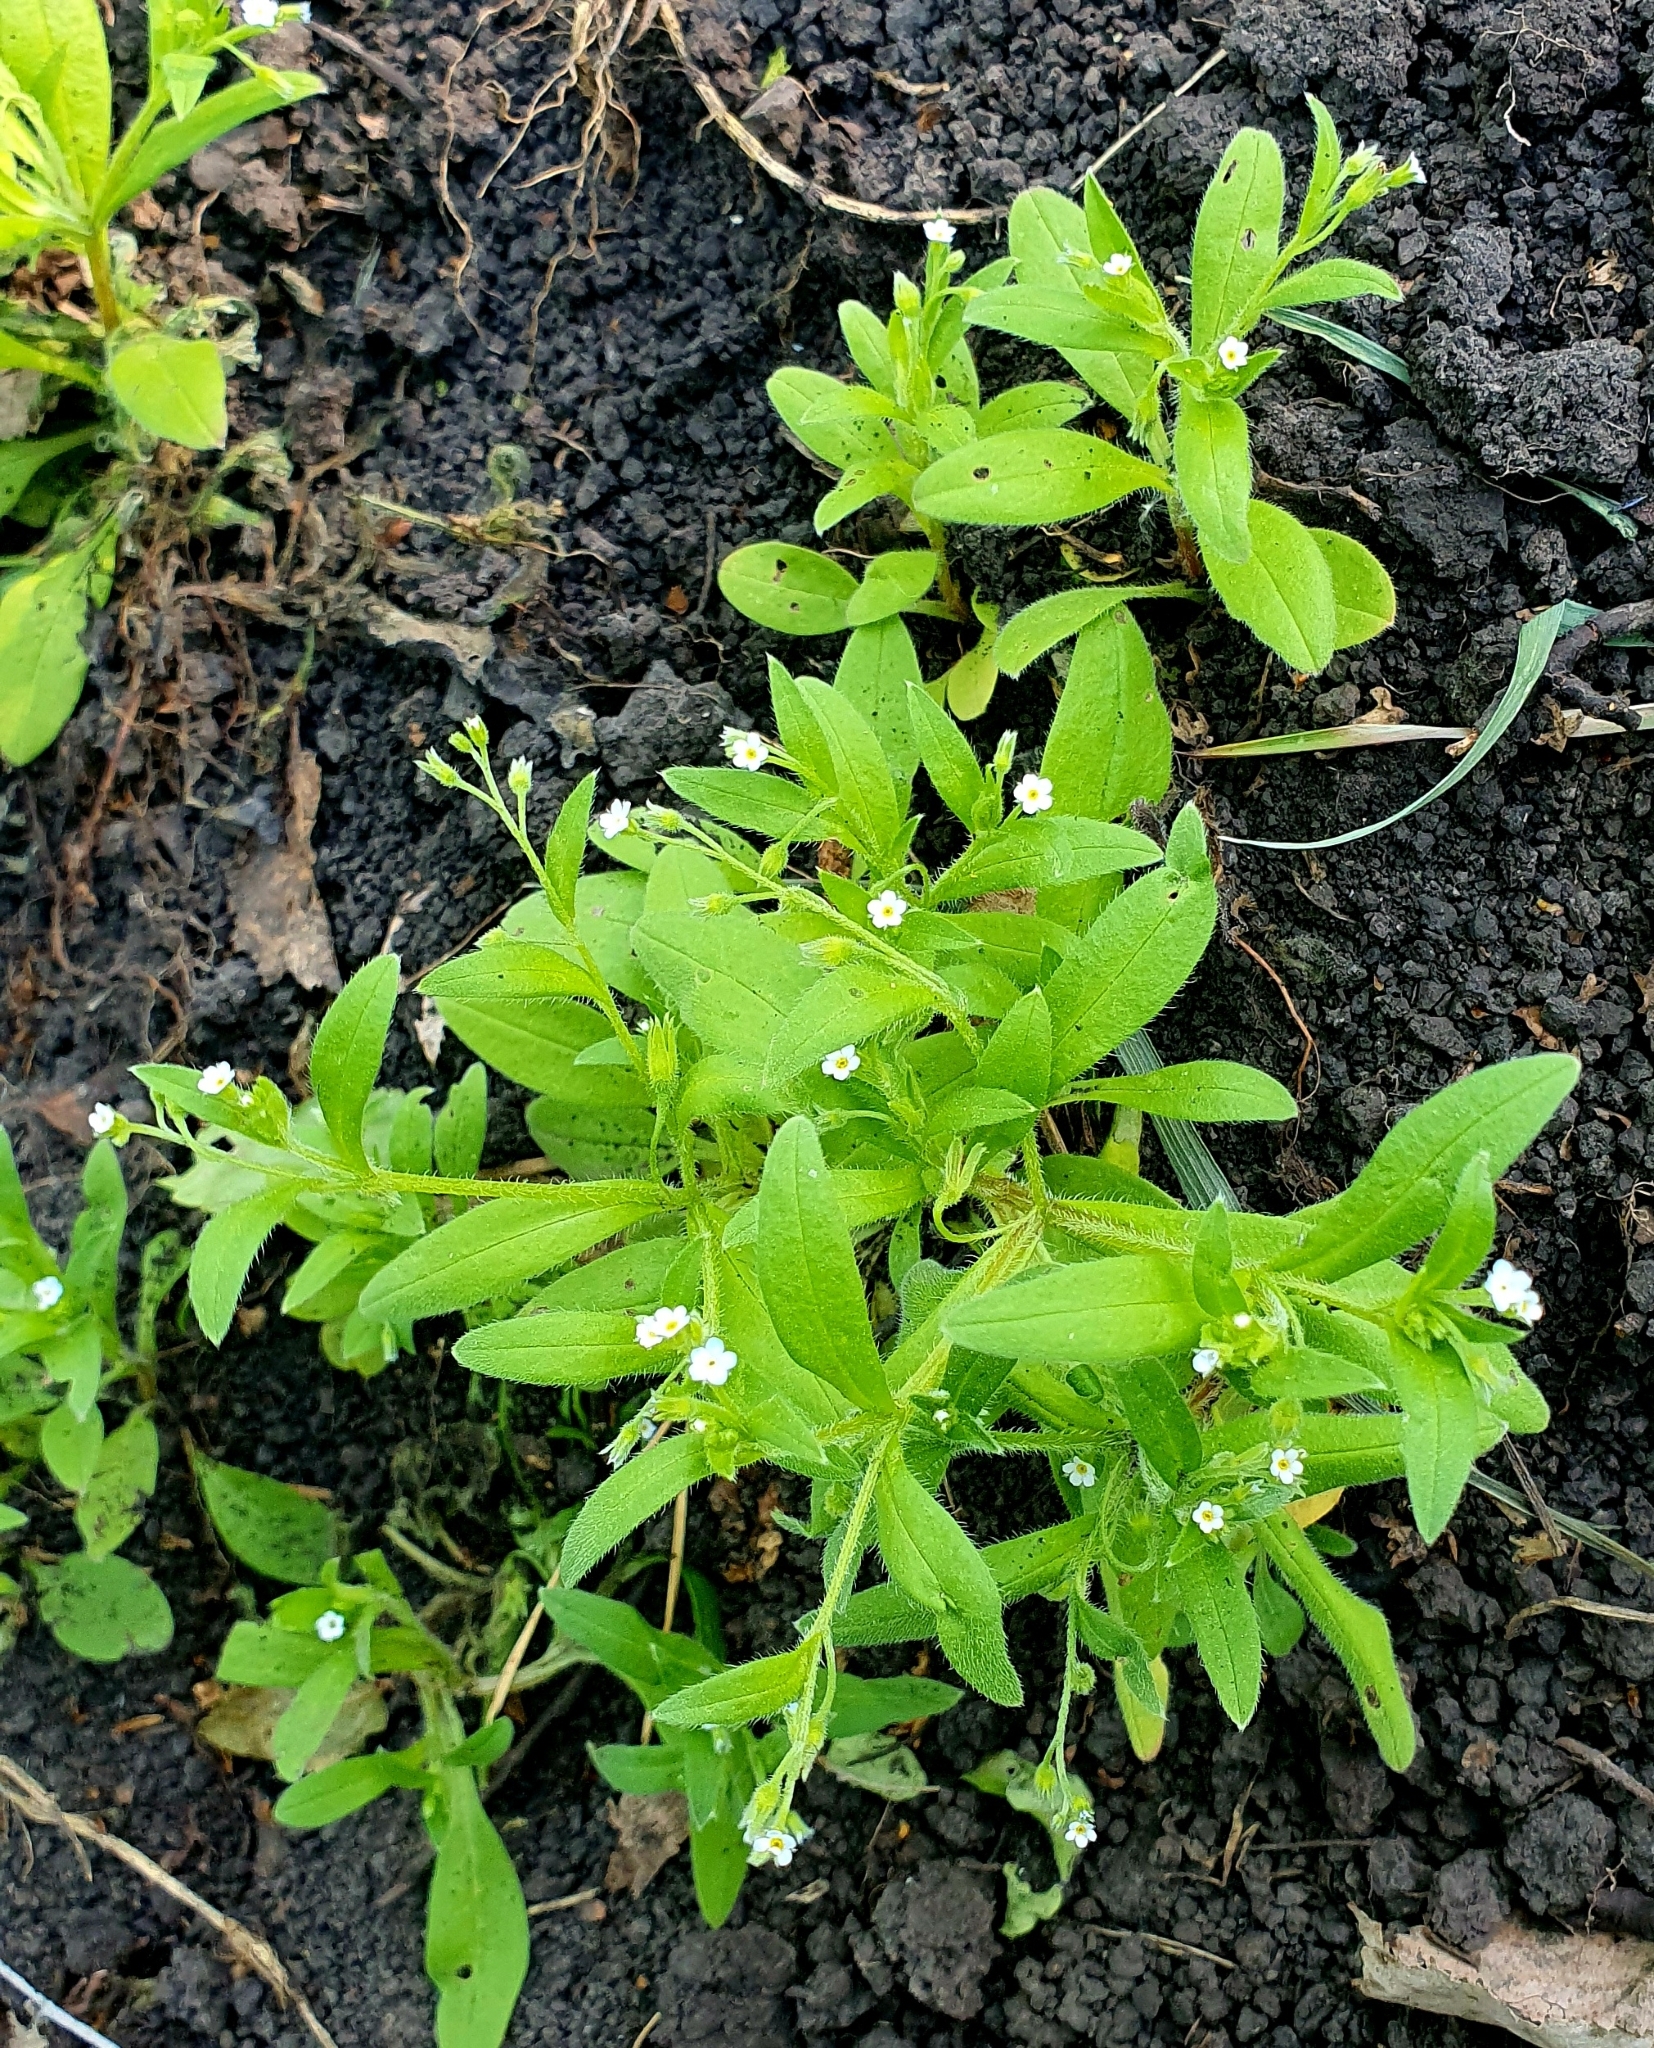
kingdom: Plantae
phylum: Tracheophyta
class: Magnoliopsida
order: Boraginales
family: Boraginaceae
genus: Myosotis
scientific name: Myosotis sparsiflora
